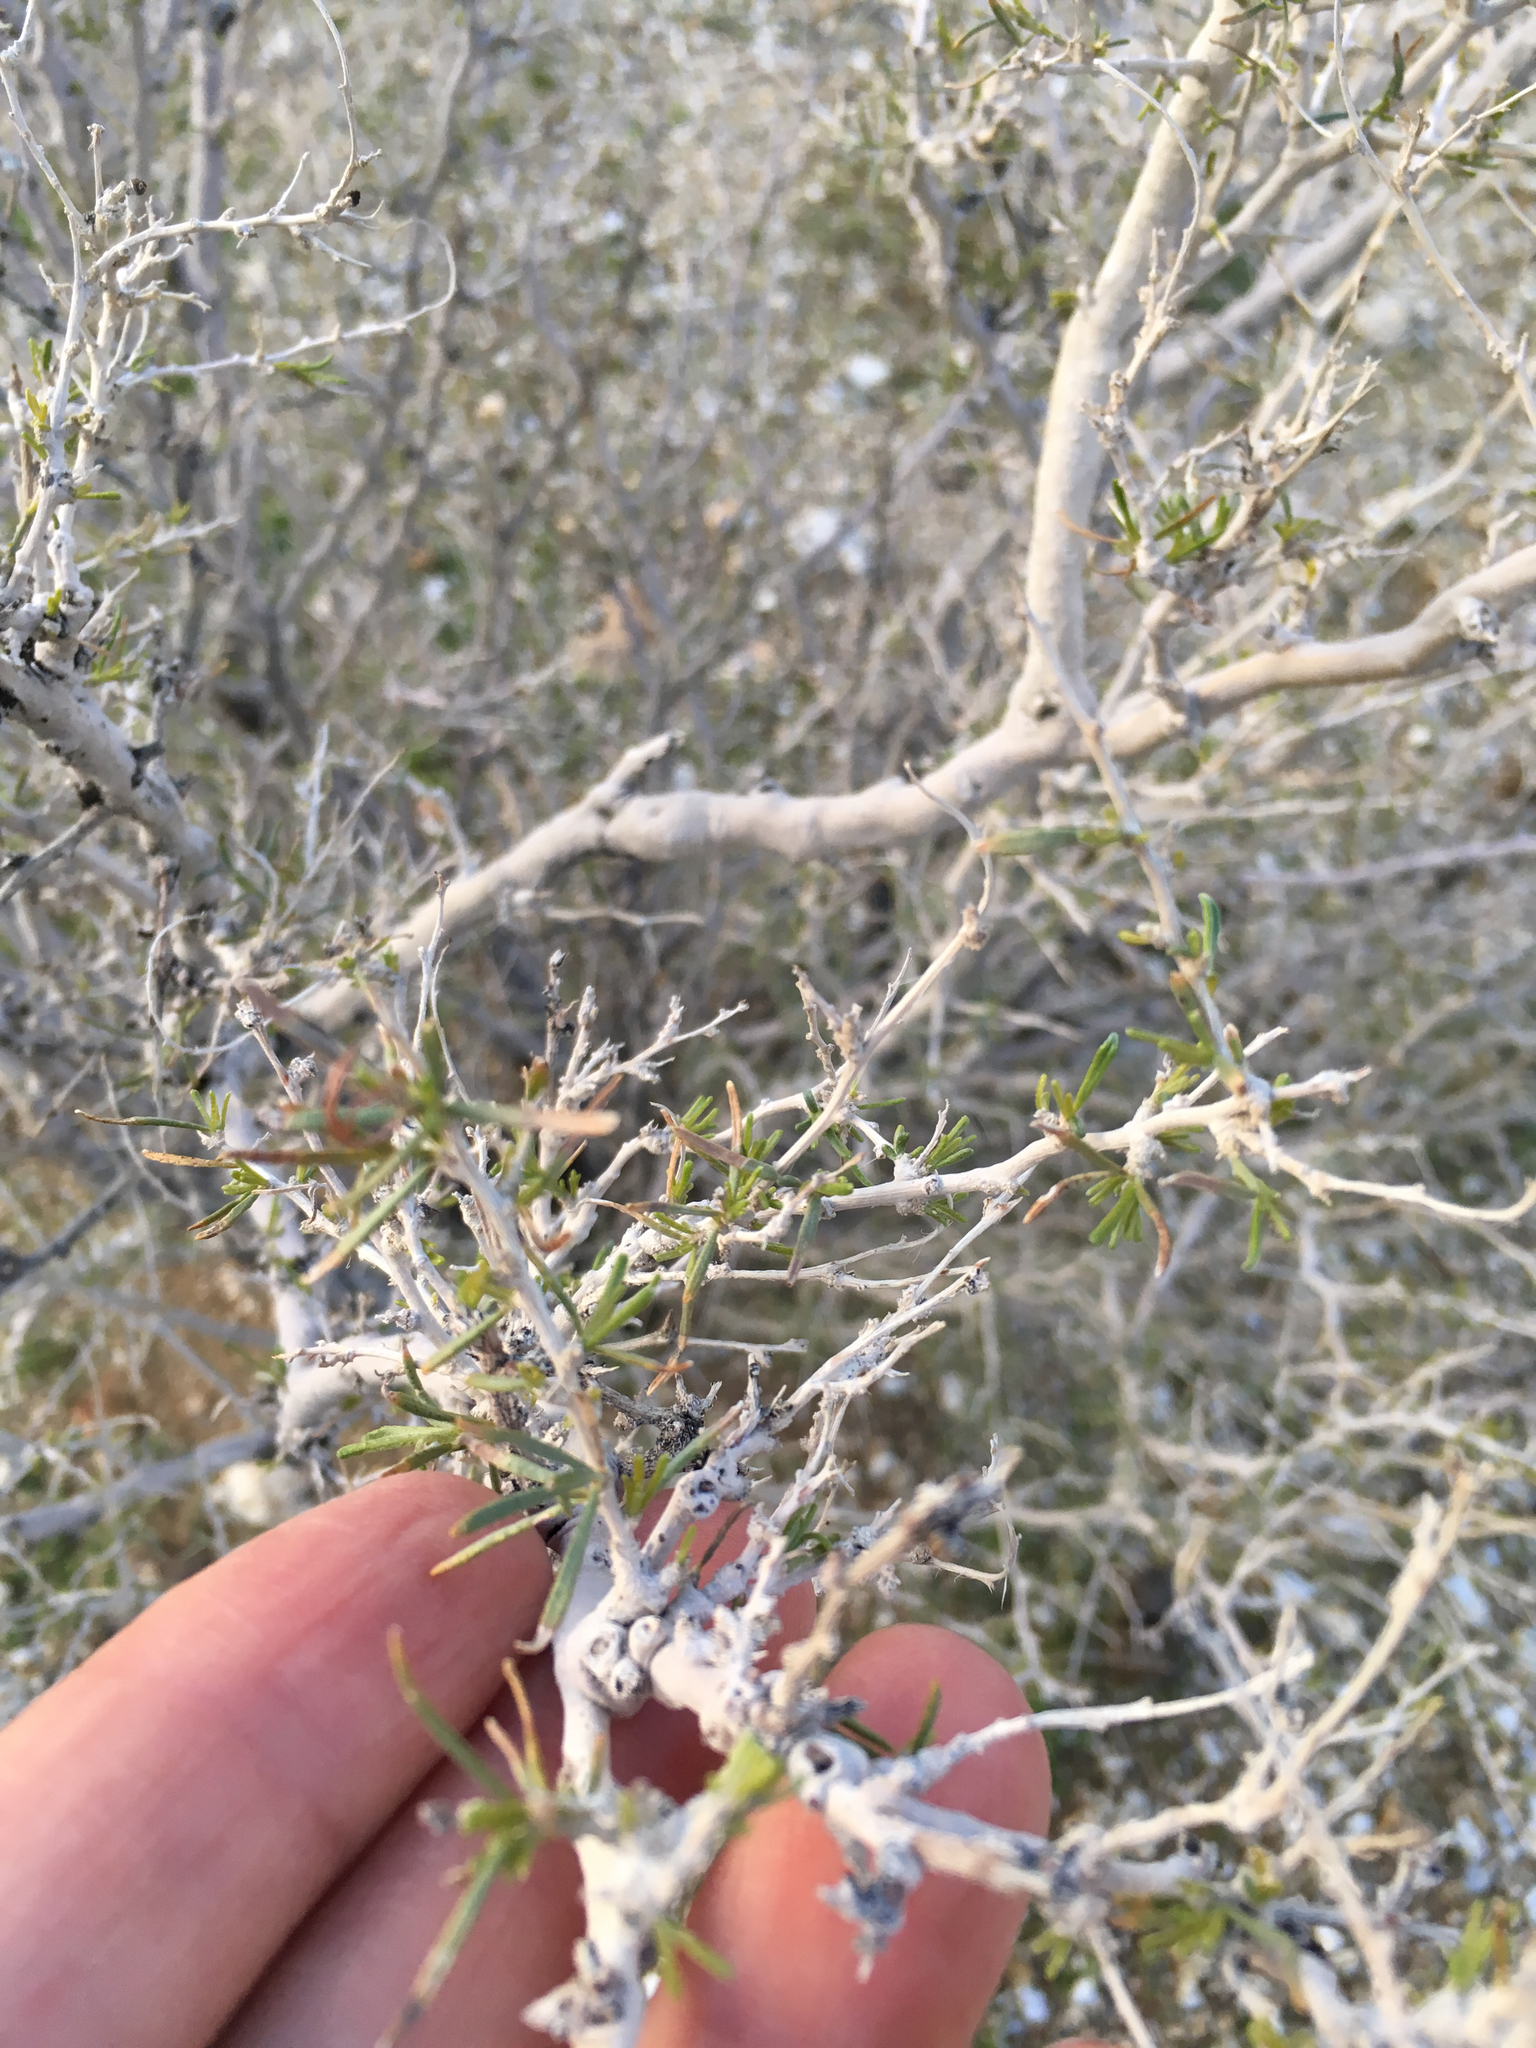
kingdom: Plantae
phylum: Tracheophyta
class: Magnoliopsida
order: Fabales
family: Fabaceae
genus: Psorothamnus
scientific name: Psorothamnus schottii
